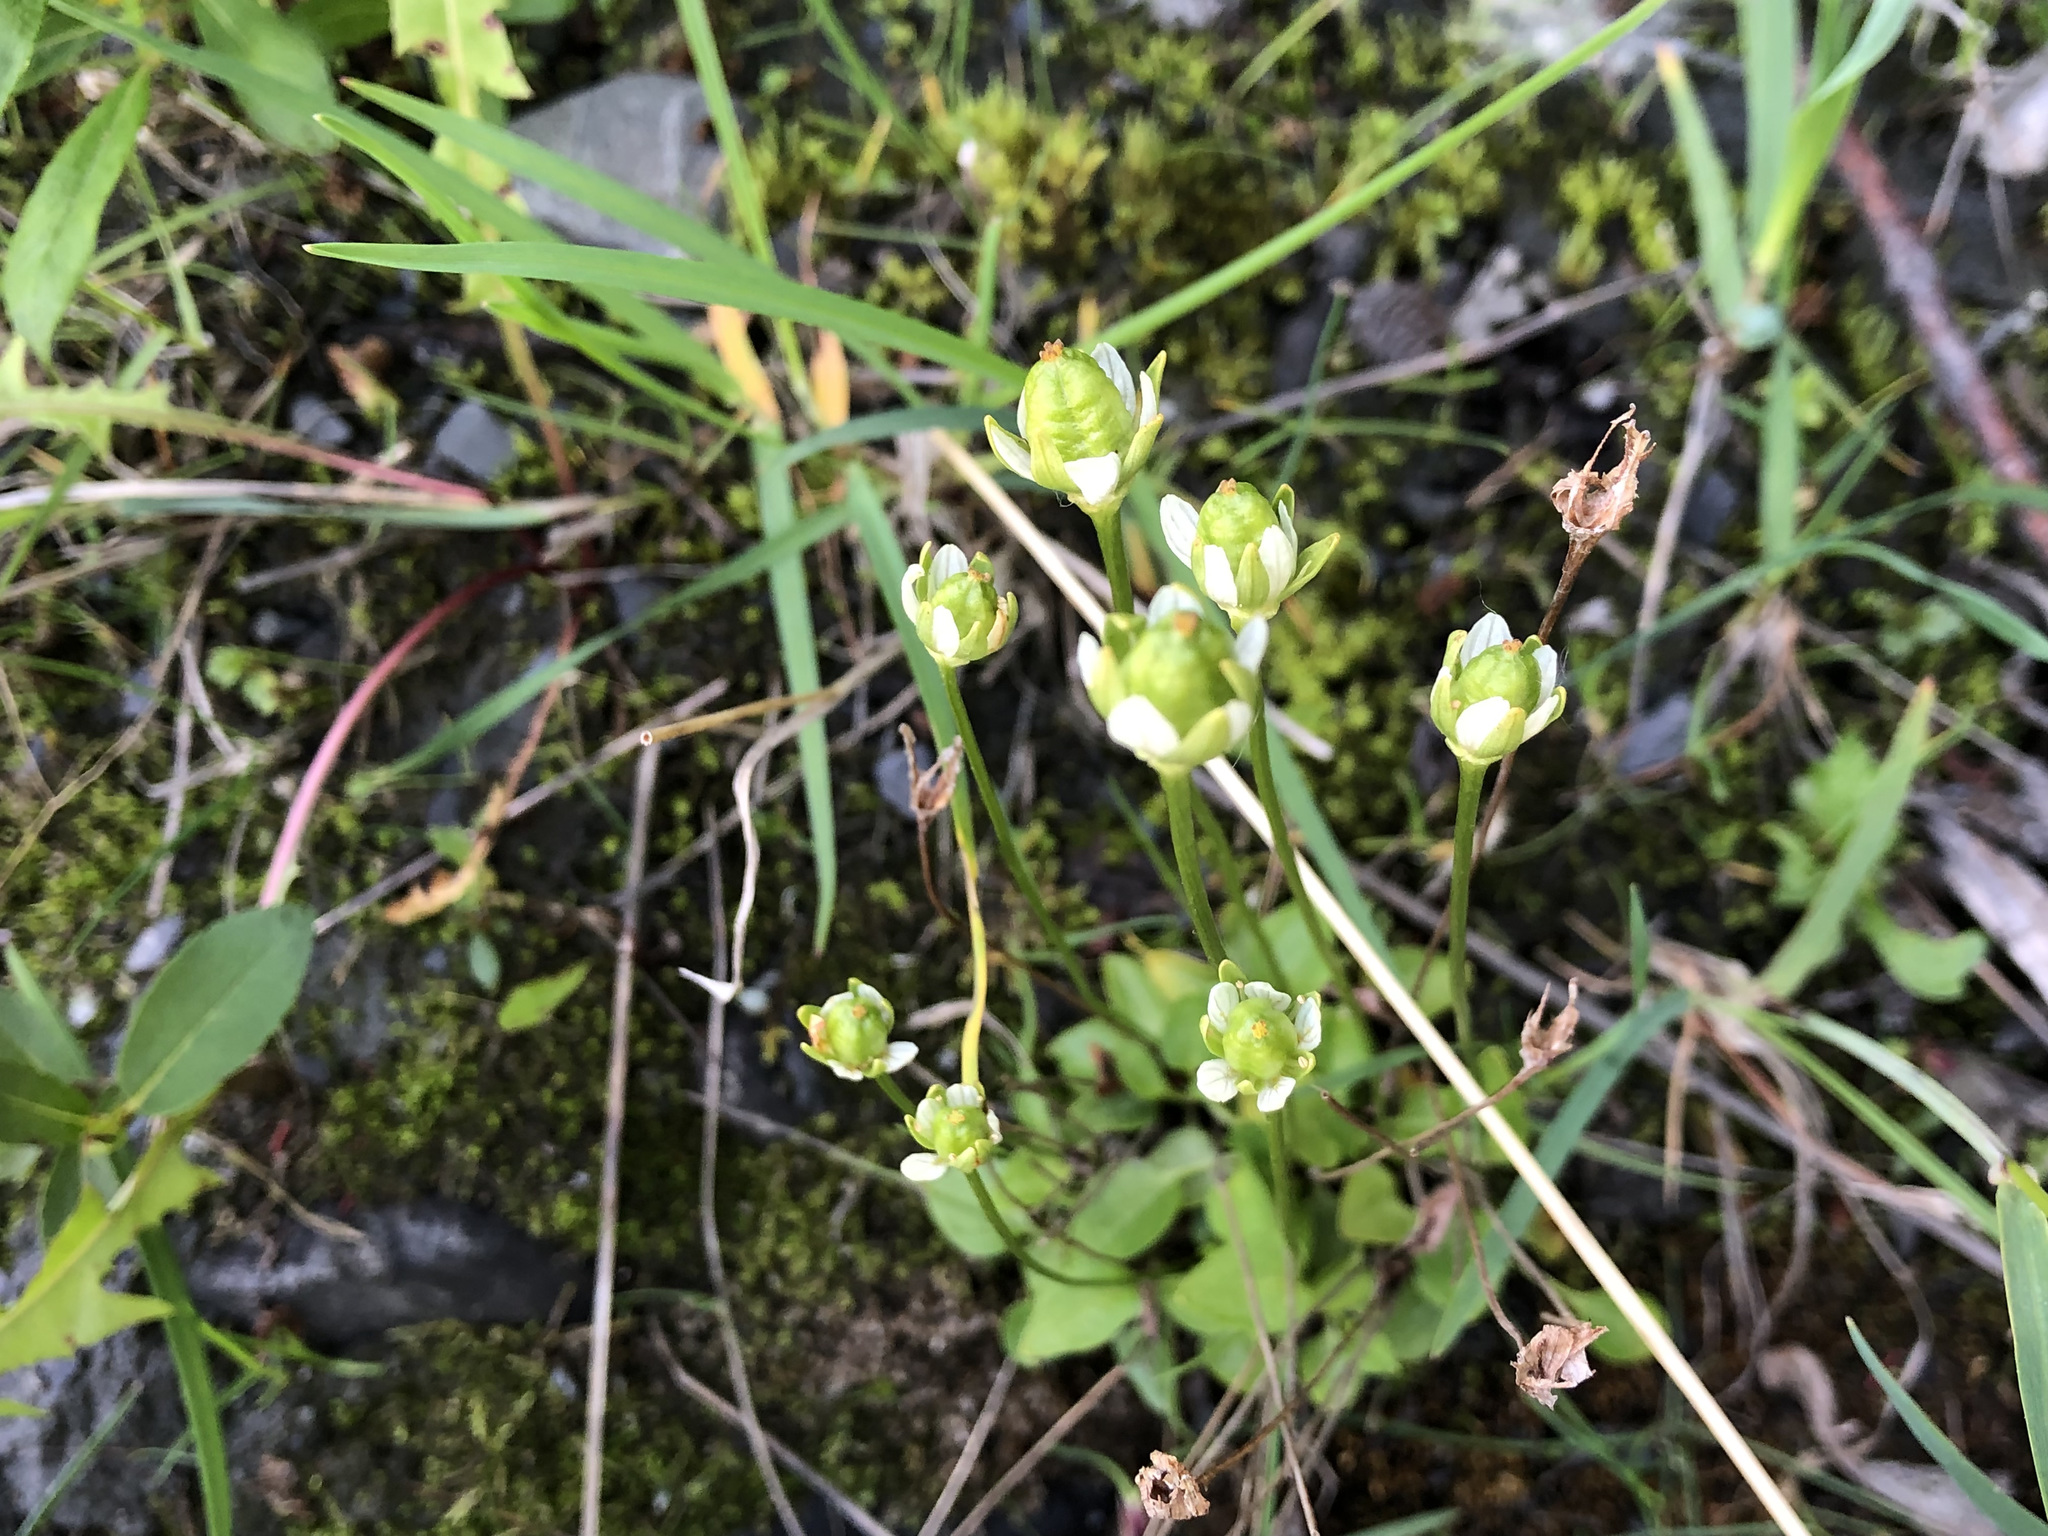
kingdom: Plantae
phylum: Tracheophyta
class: Magnoliopsida
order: Celastrales
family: Parnassiaceae
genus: Parnassia
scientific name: Parnassia kotzebuei
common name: Kotzebue's grass-of-parnassus
